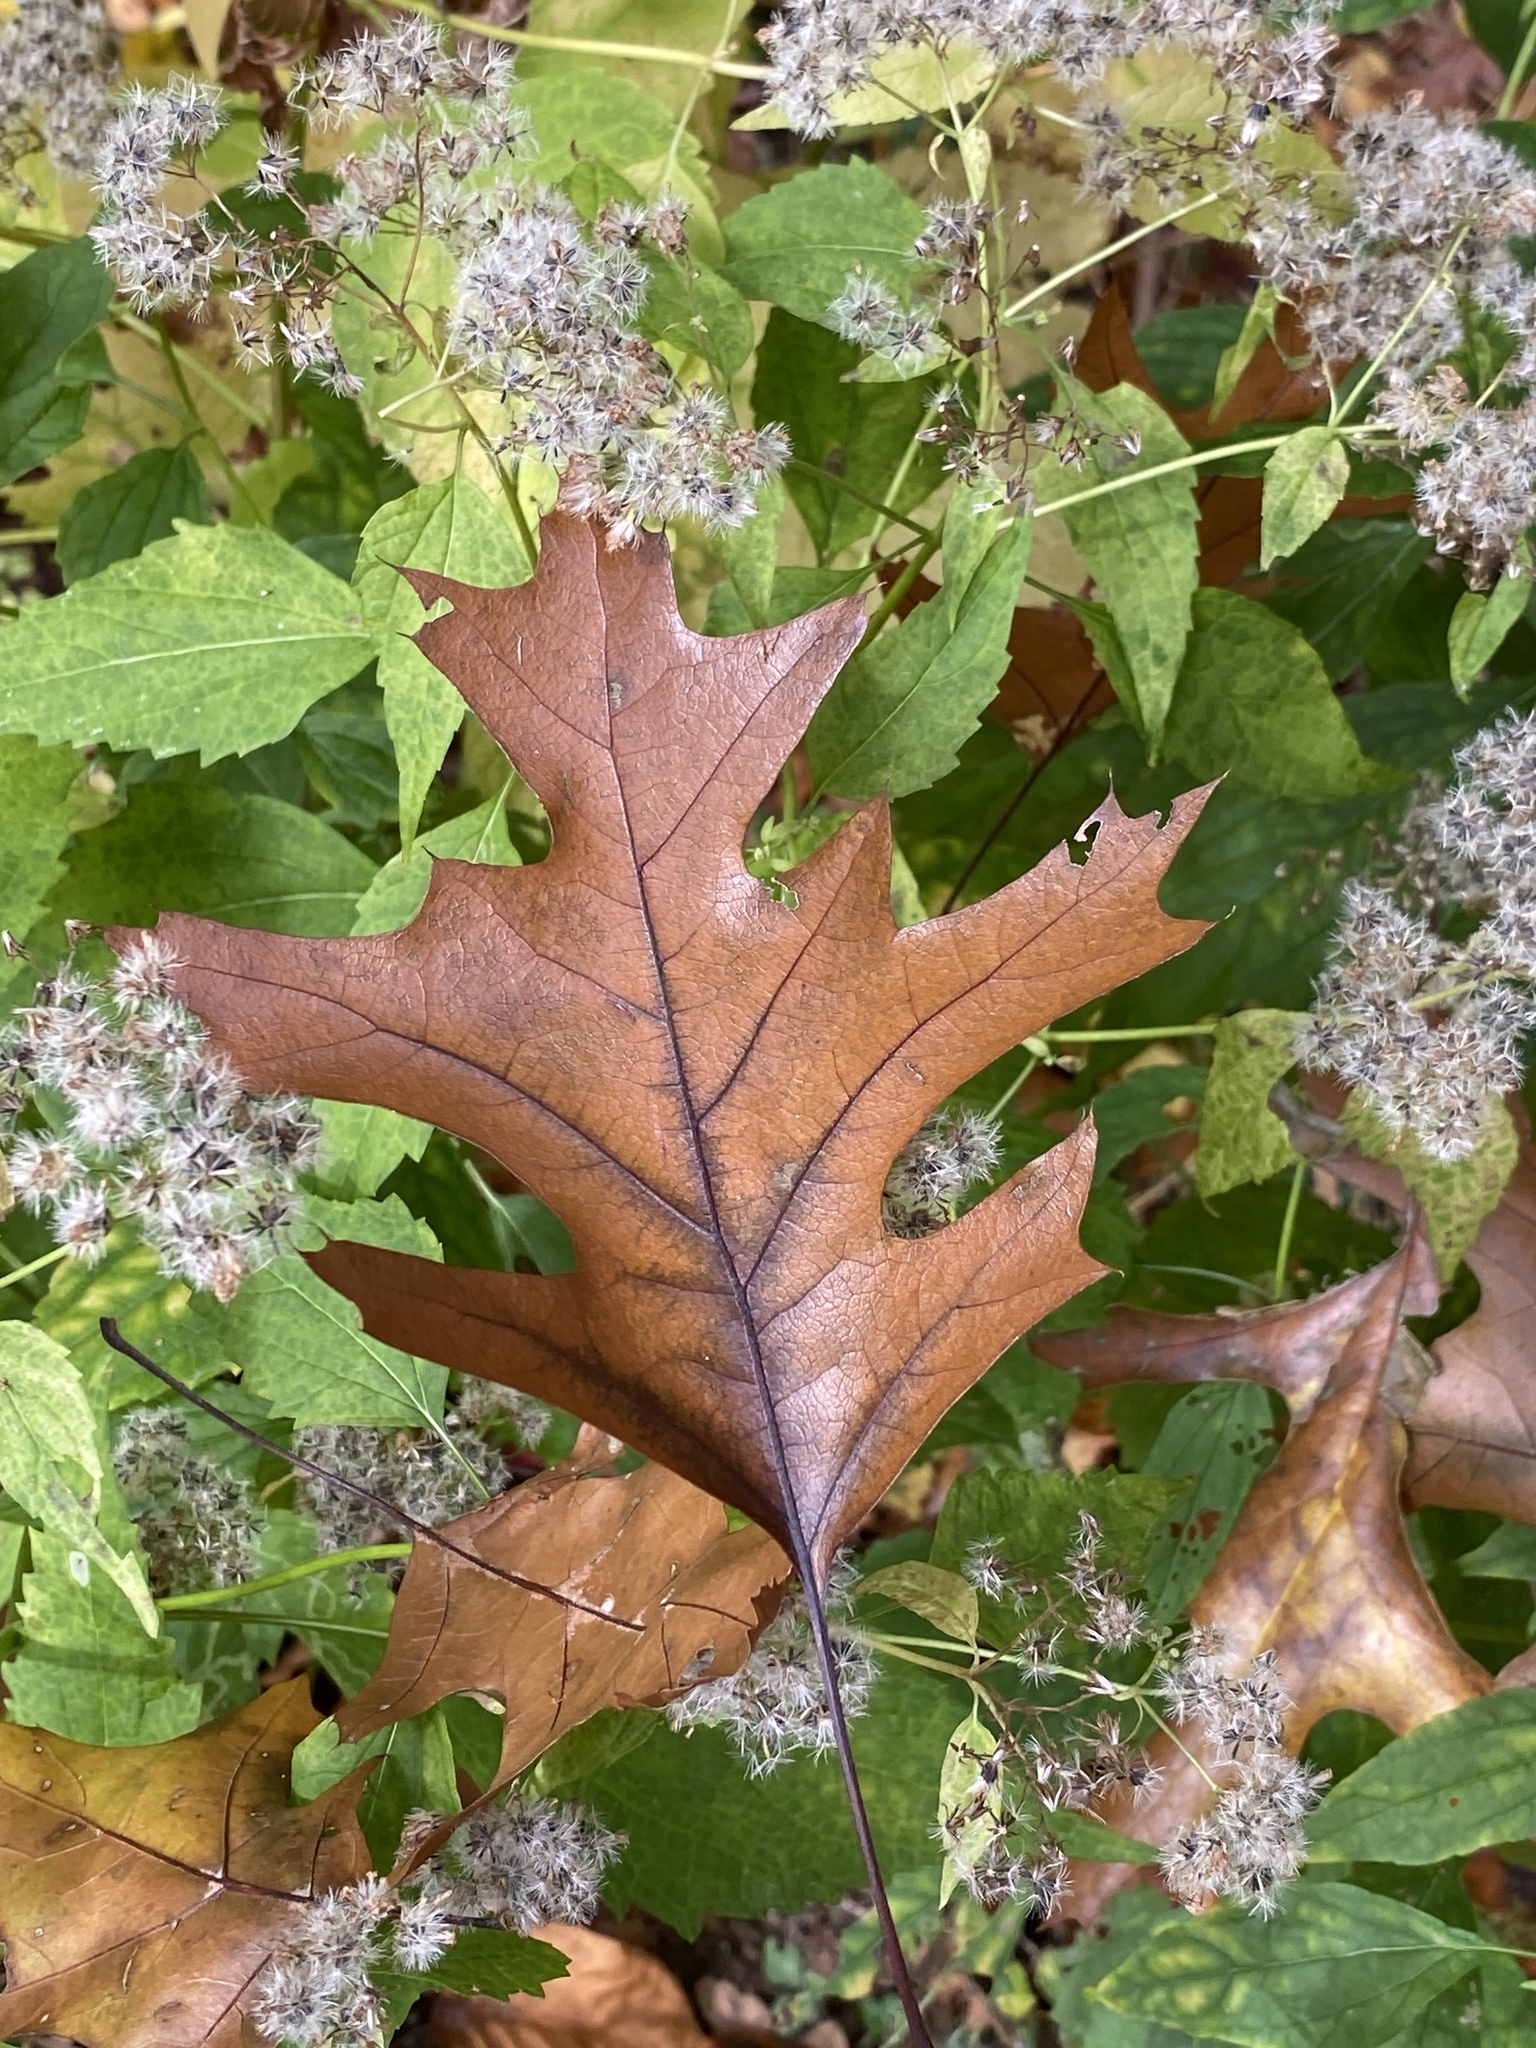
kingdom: Plantae
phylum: Tracheophyta
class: Magnoliopsida
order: Fagales
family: Fagaceae
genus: Quercus
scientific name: Quercus rubra
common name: Red oak
